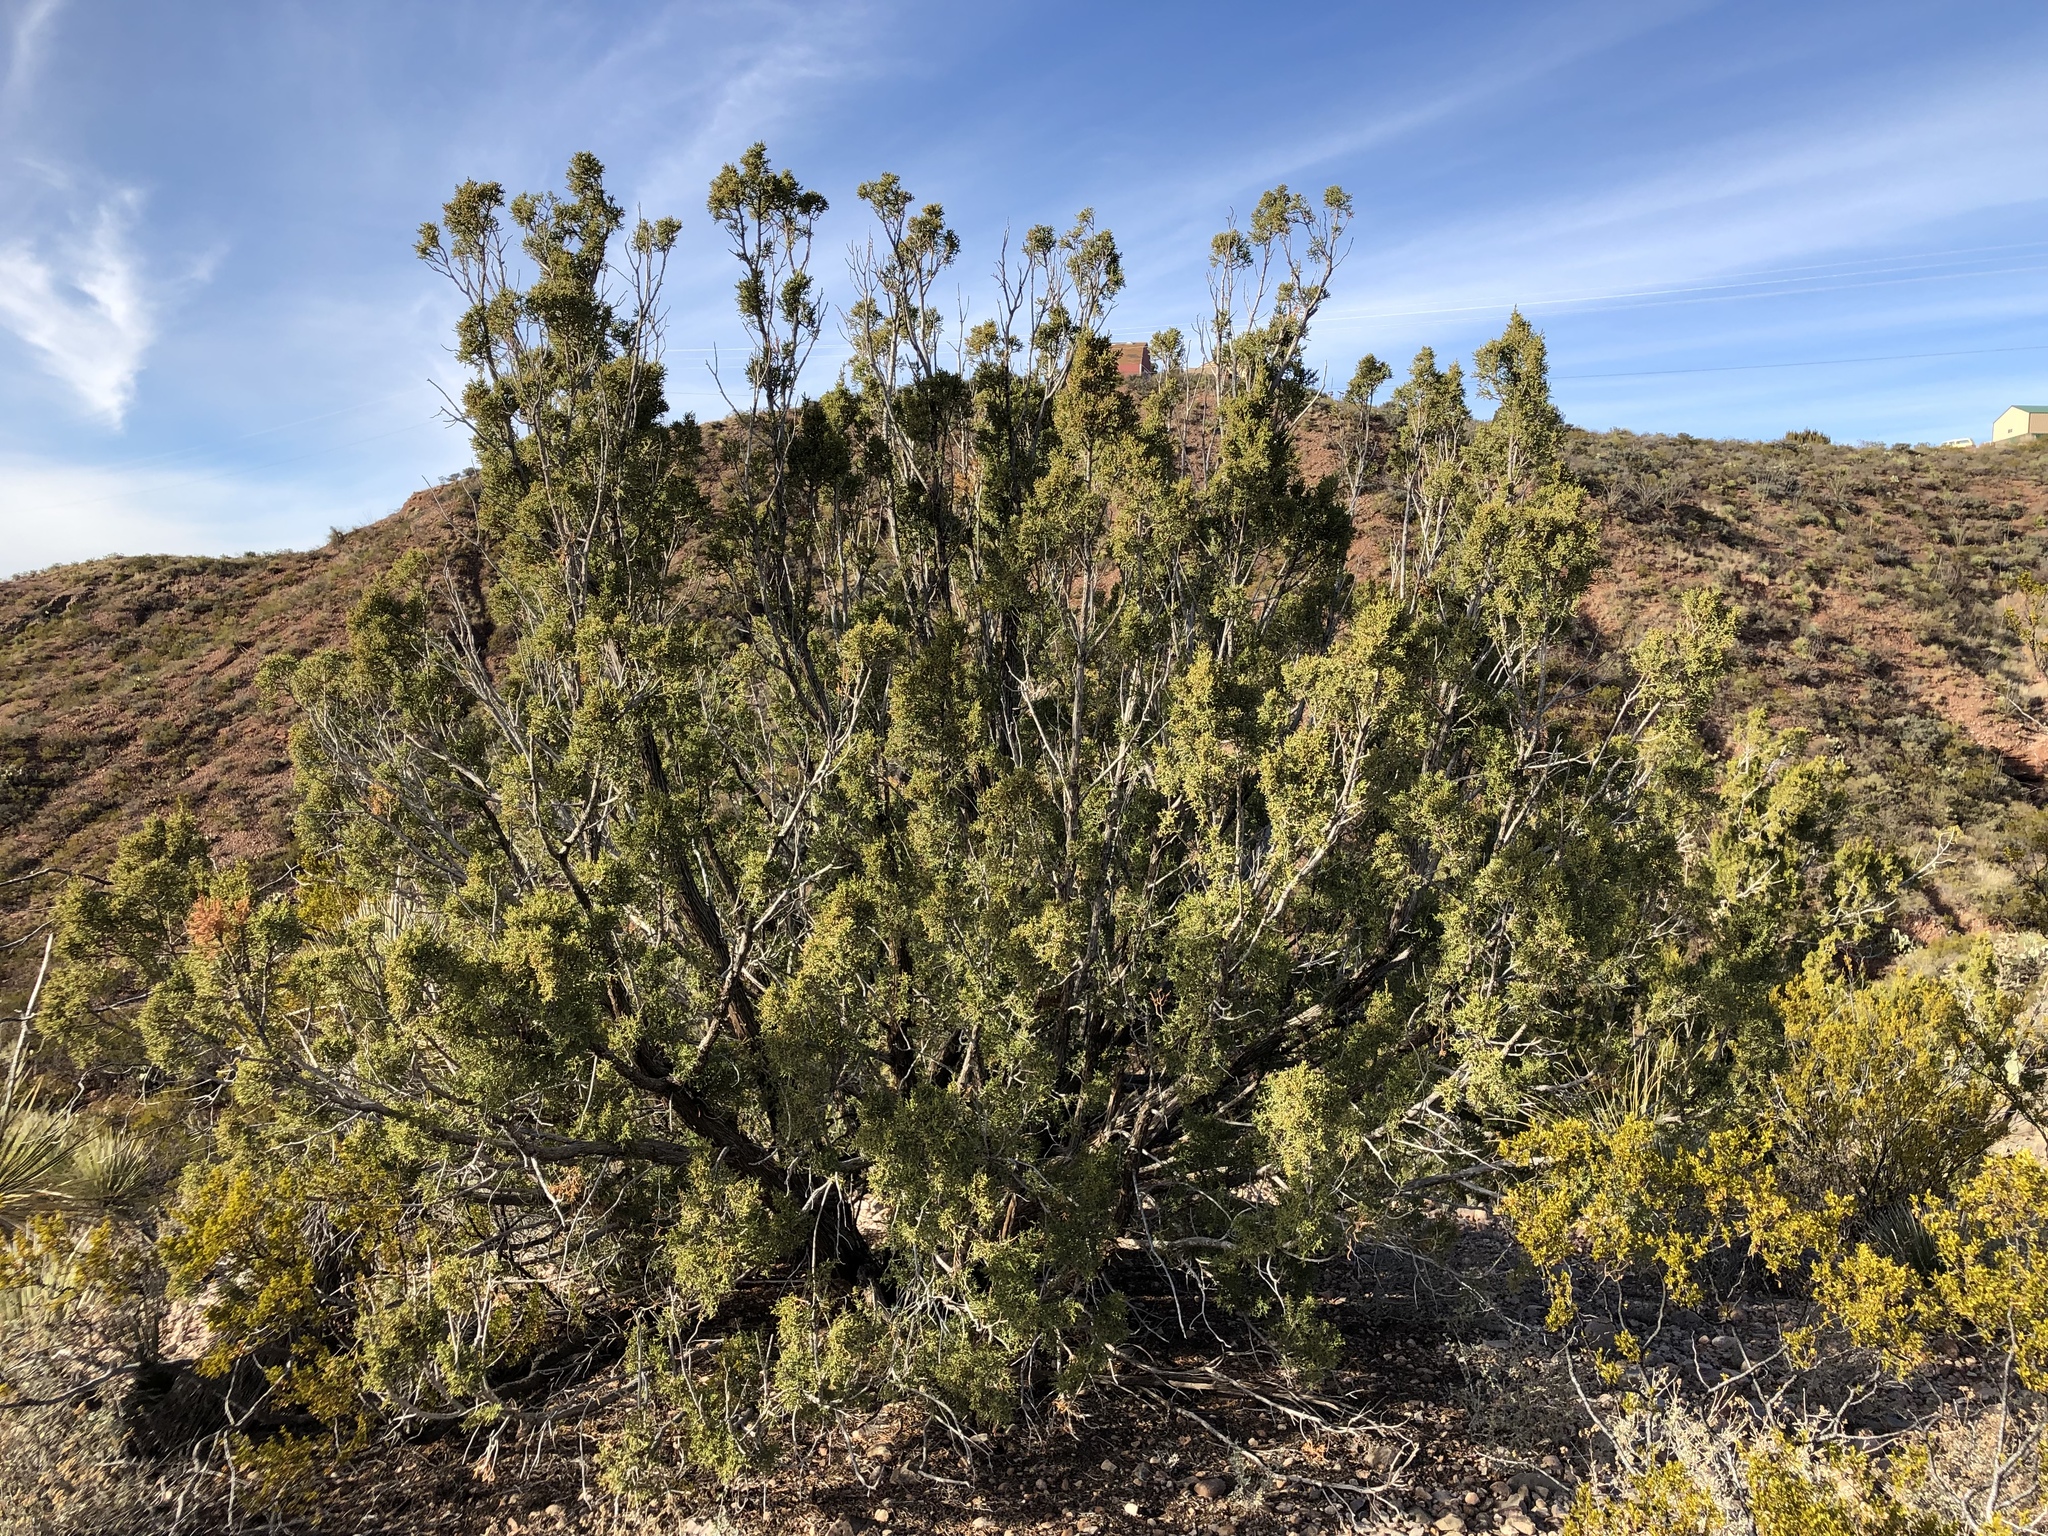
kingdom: Plantae
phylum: Tracheophyta
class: Pinopsida
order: Pinales
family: Cupressaceae
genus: Juniperus
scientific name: Juniperus monosperma
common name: One-seed juniper
